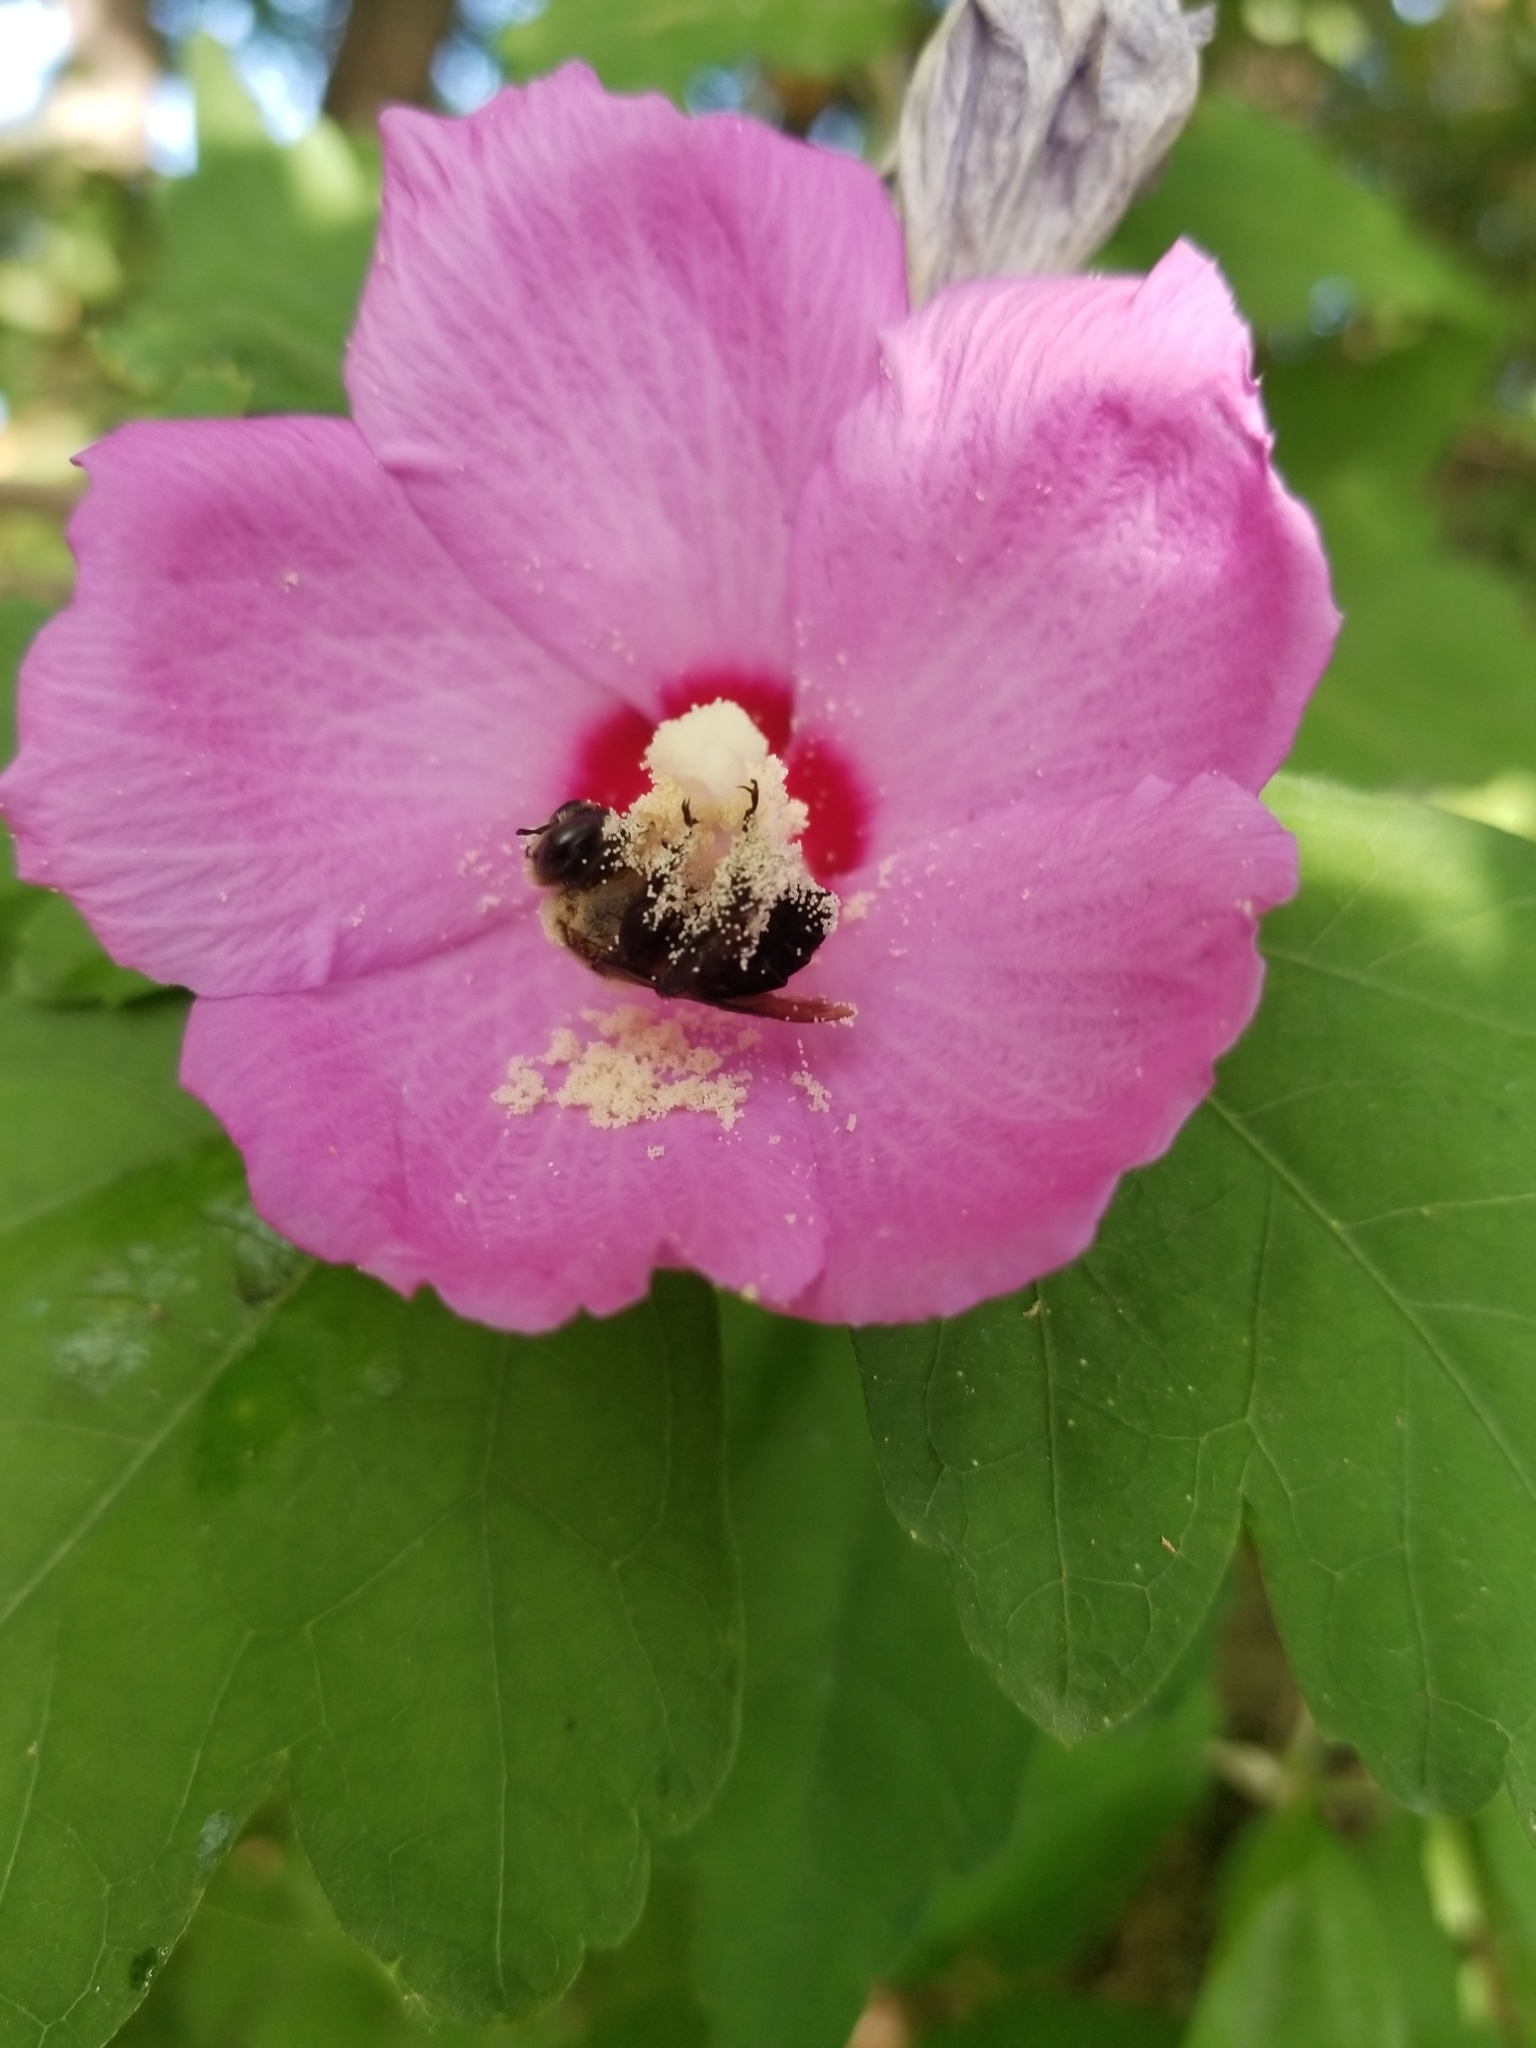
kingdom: Animalia
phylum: Arthropoda
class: Insecta
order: Hymenoptera
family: Apidae
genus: Ptilothrix
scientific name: Ptilothrix bombiformis
